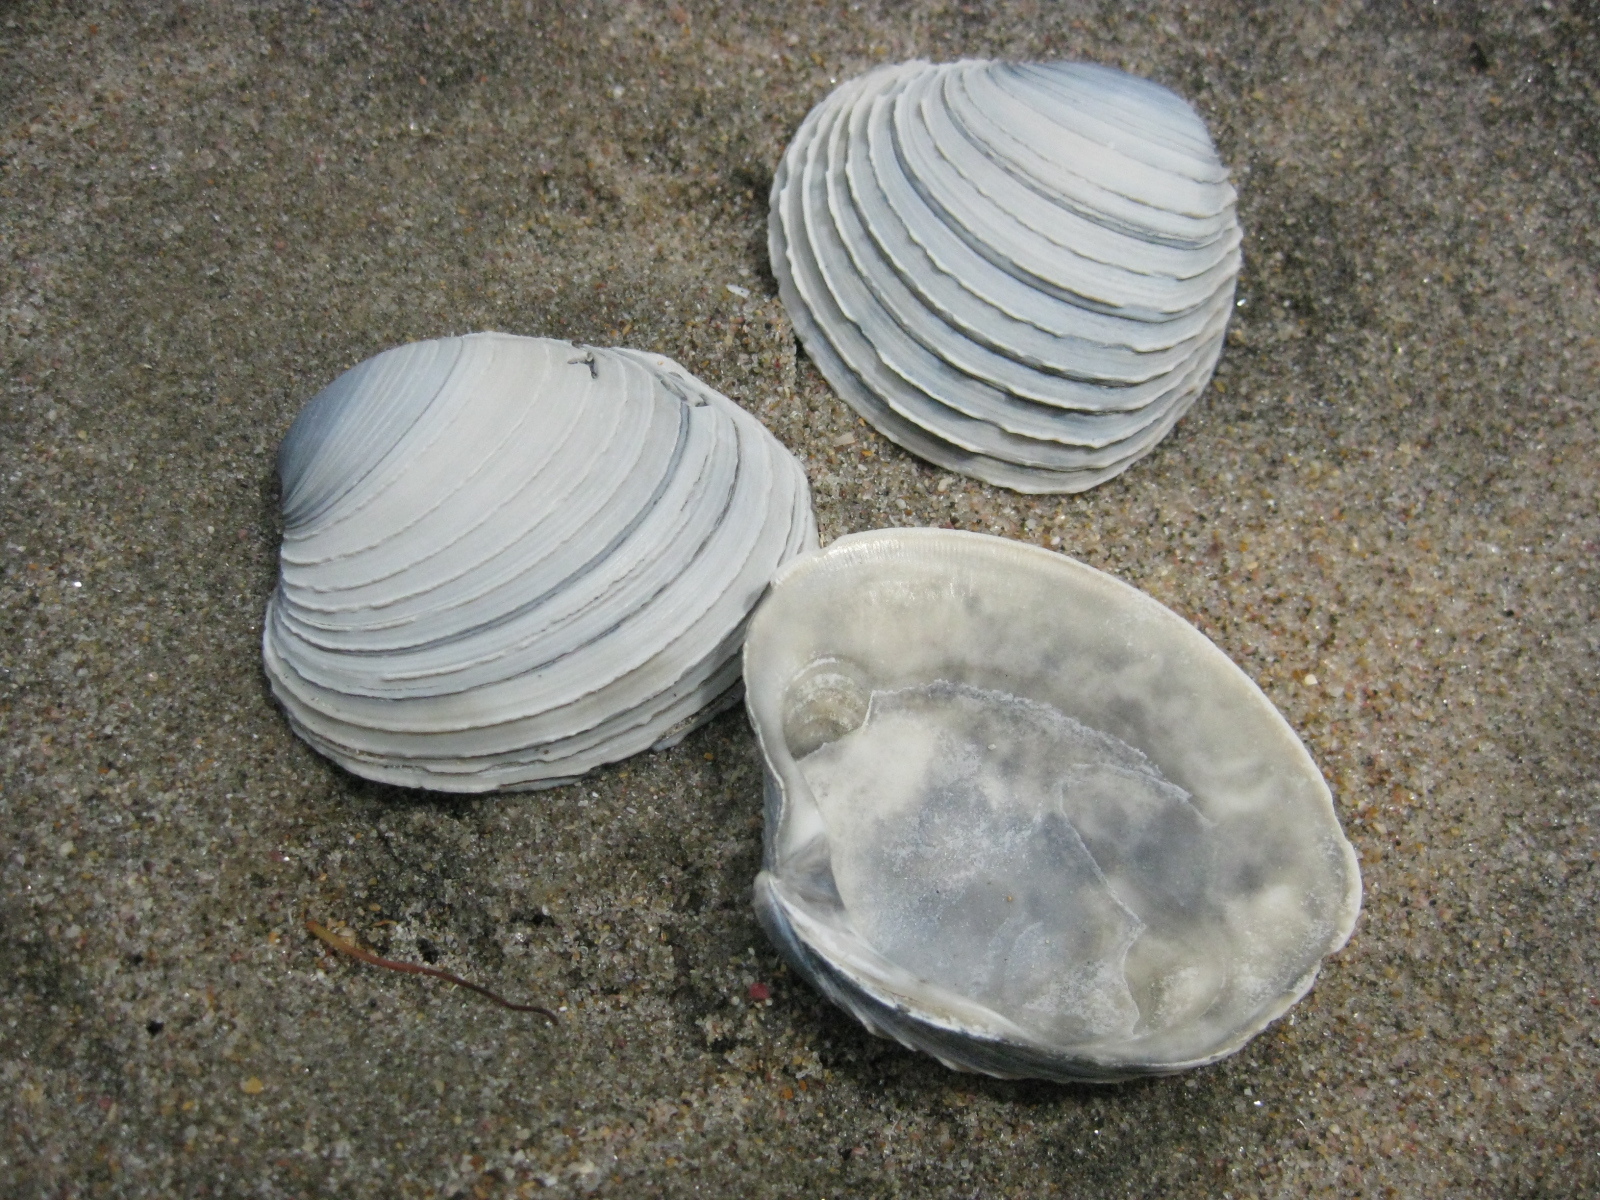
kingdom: Animalia
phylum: Mollusca
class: Bivalvia
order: Venerida
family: Veneridae
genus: Bassina
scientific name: Bassina yatei
